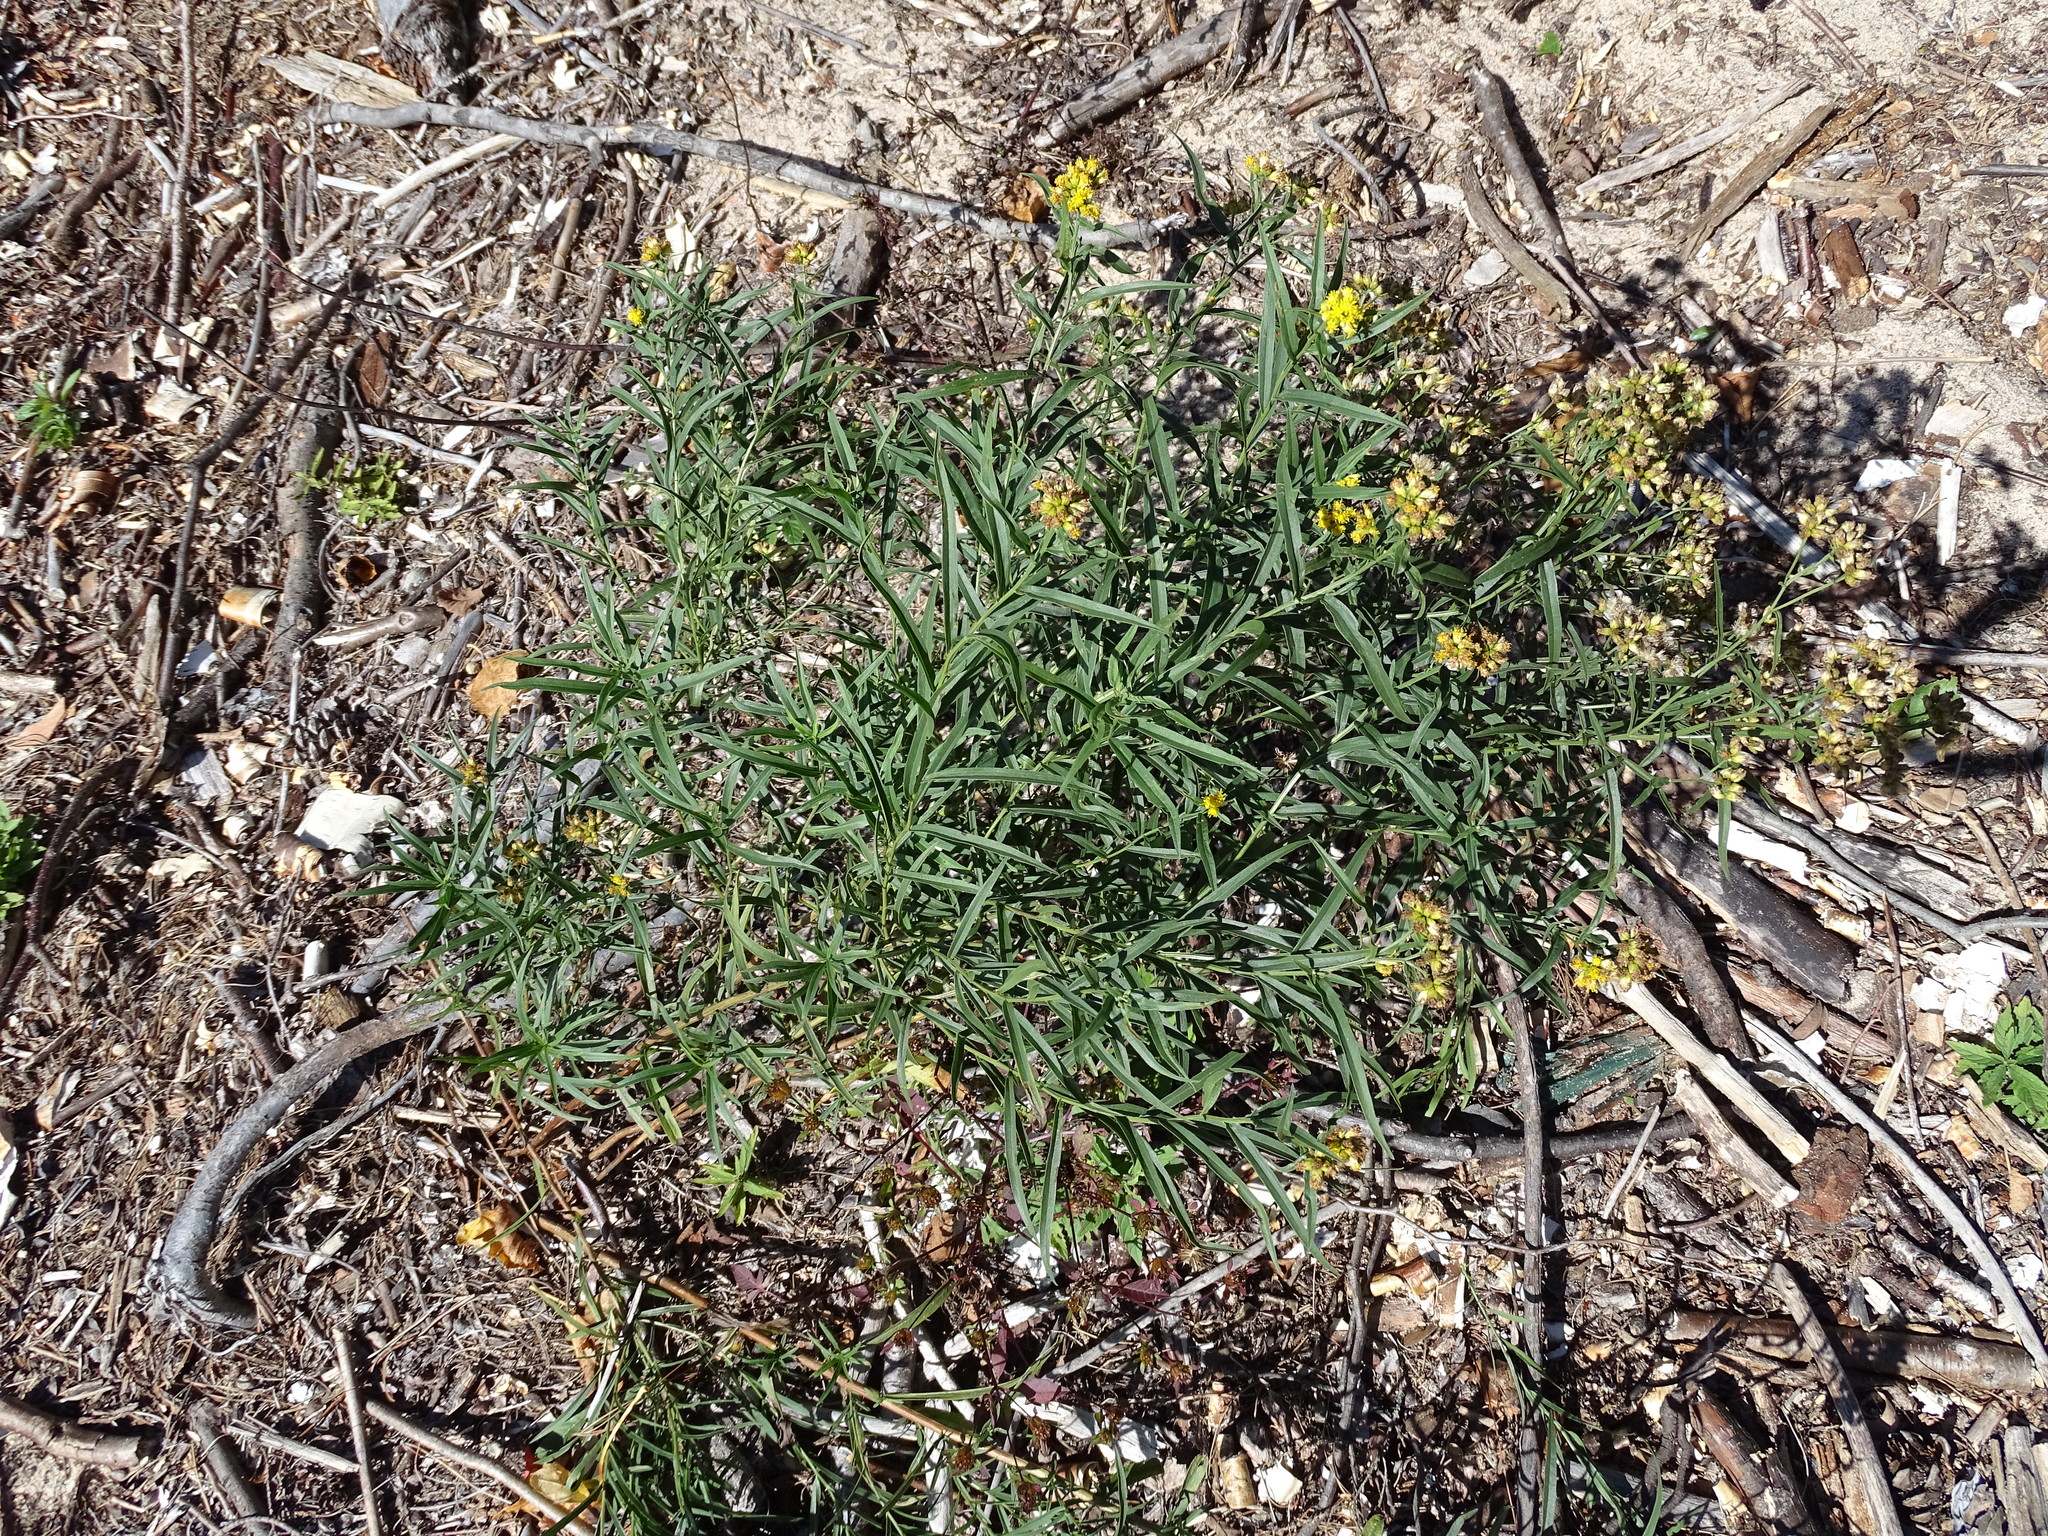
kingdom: Plantae
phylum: Tracheophyta
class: Magnoliopsida
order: Asterales
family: Asteraceae
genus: Euthamia
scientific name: Euthamia graminifolia
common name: Common goldentop
